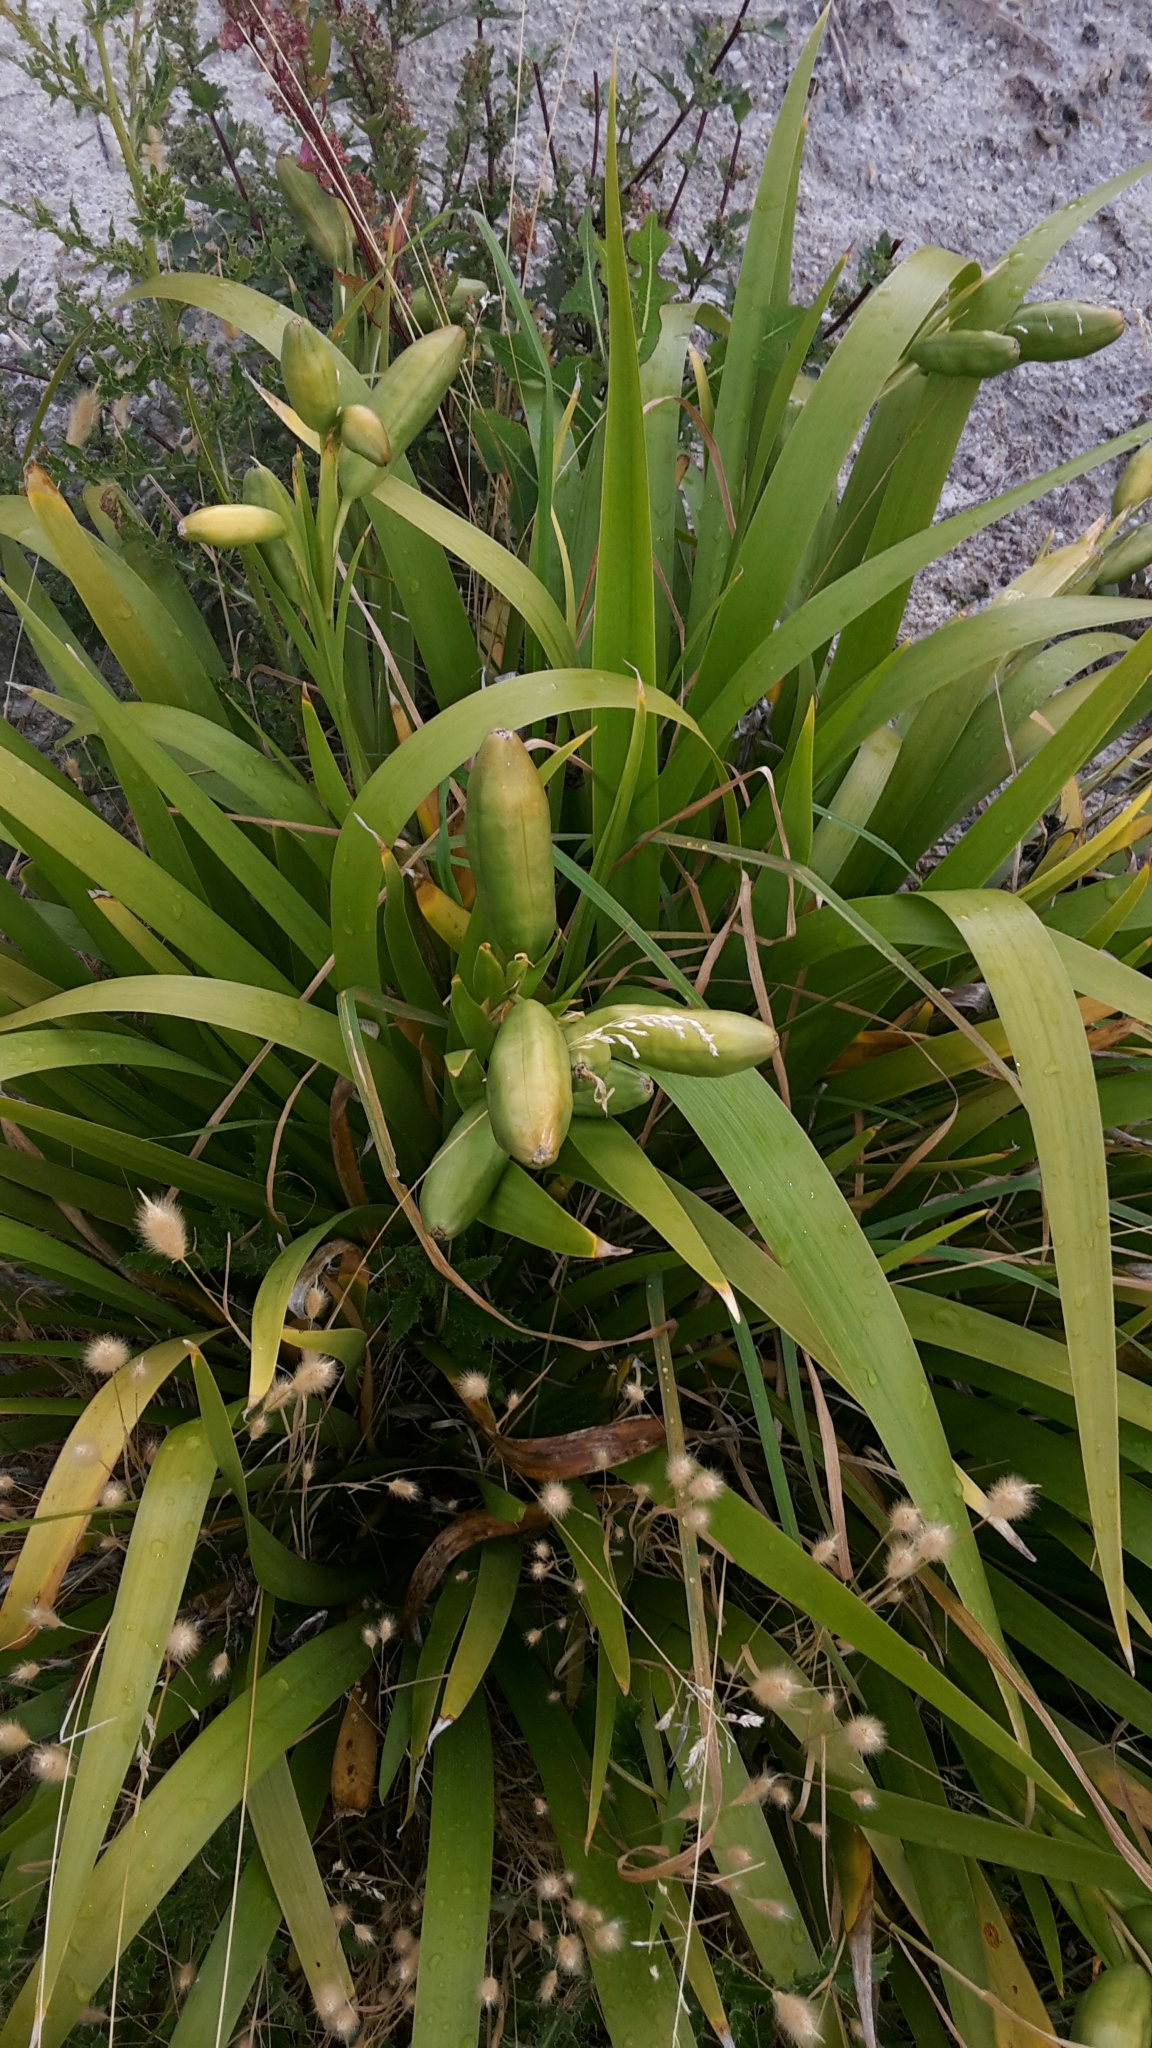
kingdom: Plantae
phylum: Tracheophyta
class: Liliopsida
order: Asparagales
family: Iridaceae
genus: Iris
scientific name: Iris foetidissima
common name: Stinking iris
